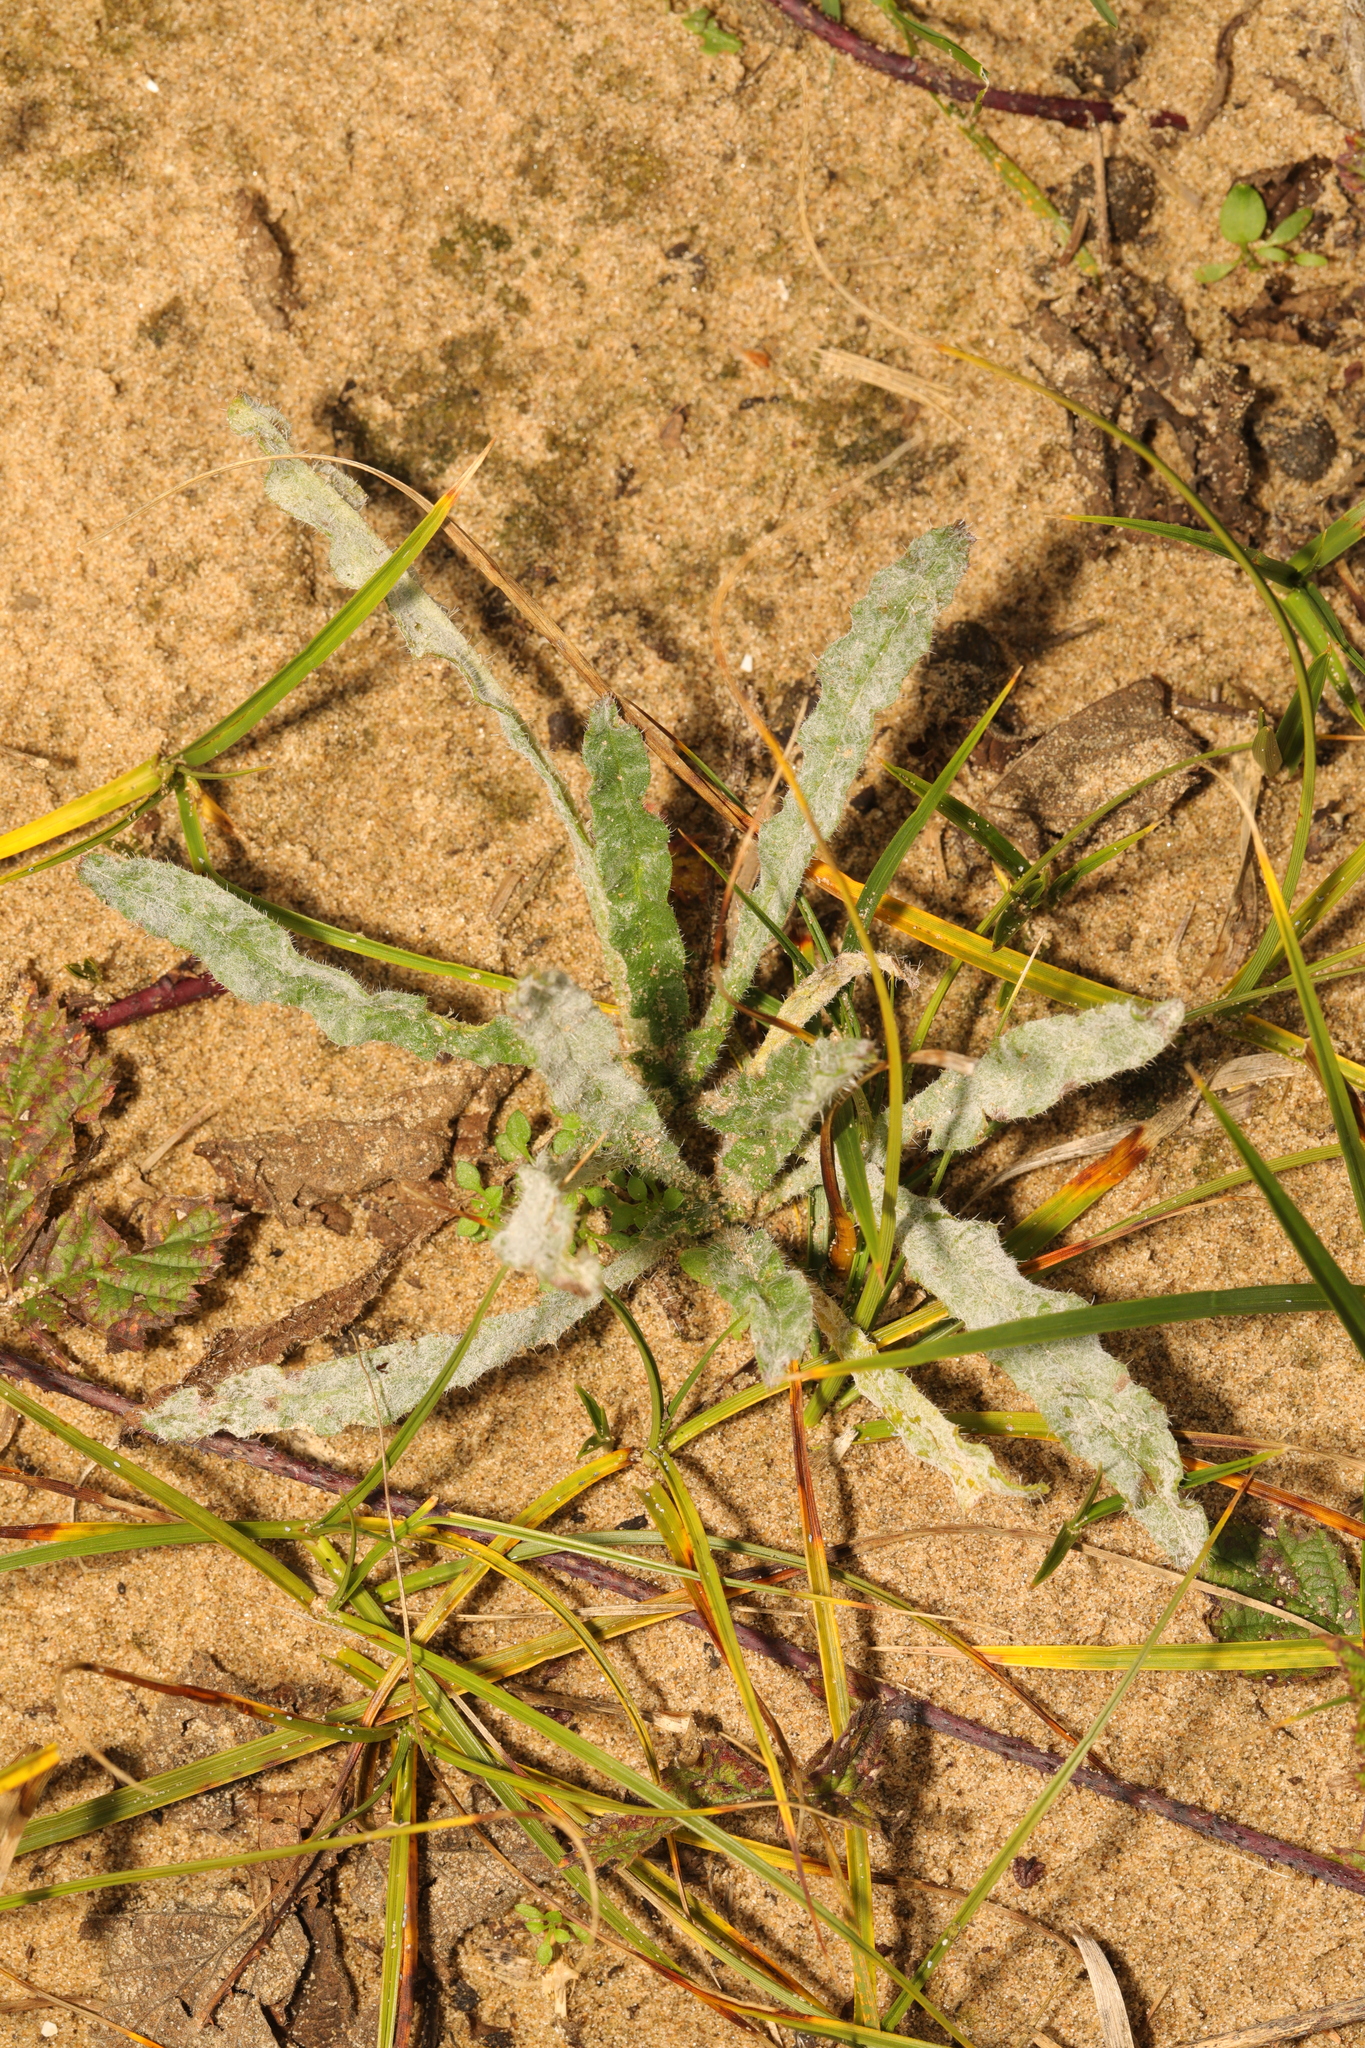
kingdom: Plantae
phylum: Tracheophyta
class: Magnoliopsida
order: Boraginales
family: Boraginaceae
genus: Lycopsis
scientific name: Lycopsis arvensis
